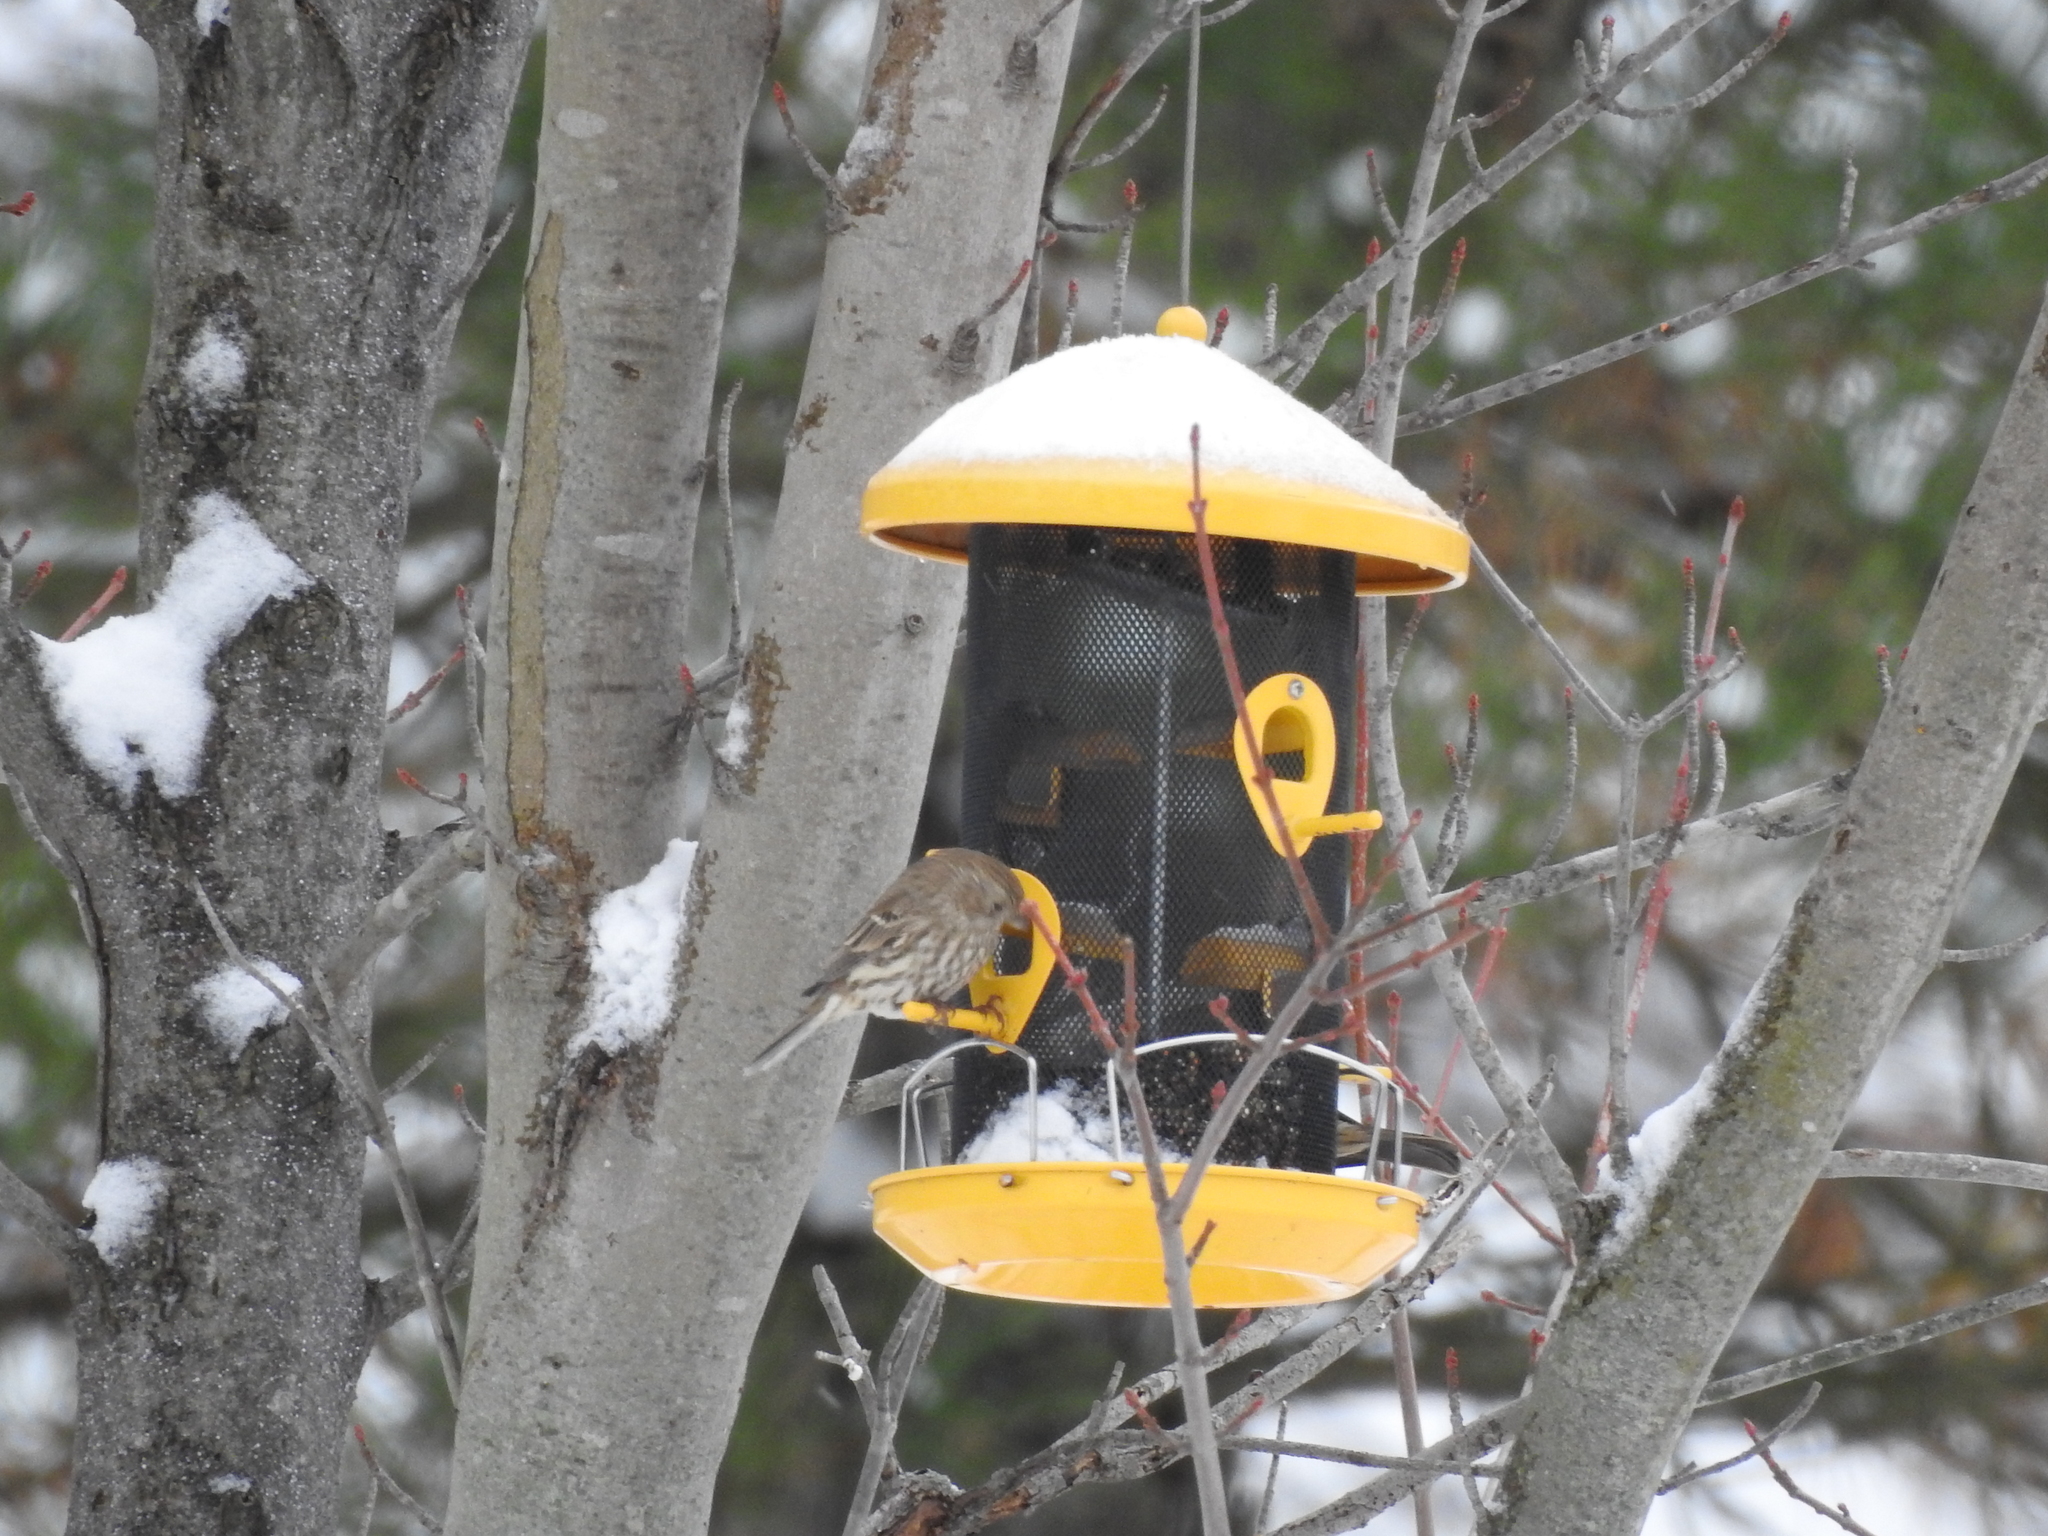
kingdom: Animalia
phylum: Chordata
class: Aves
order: Passeriformes
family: Fringillidae
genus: Haemorhous
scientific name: Haemorhous mexicanus
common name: House finch
